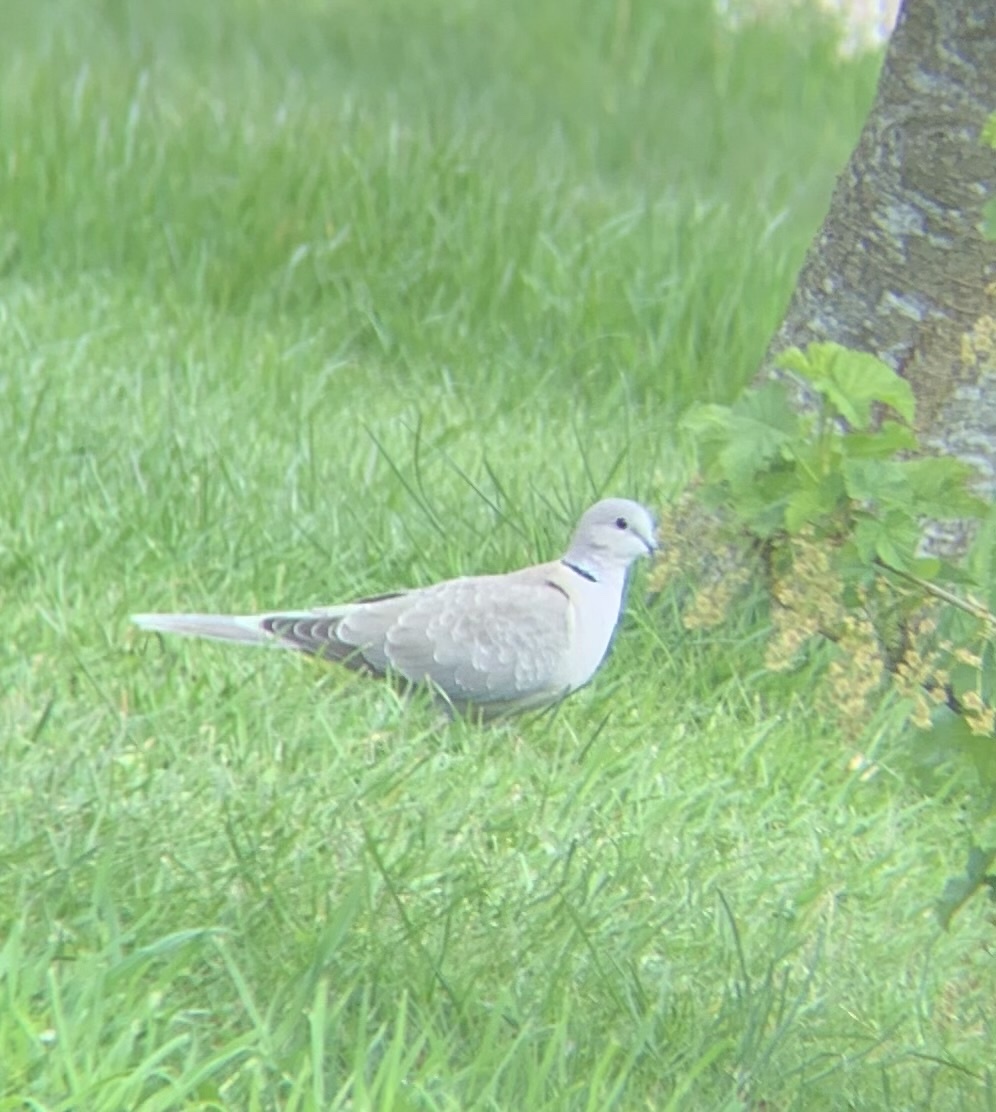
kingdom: Animalia
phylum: Chordata
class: Aves
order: Columbiformes
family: Columbidae
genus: Streptopelia
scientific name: Streptopelia decaocto
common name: Eurasian collared dove
